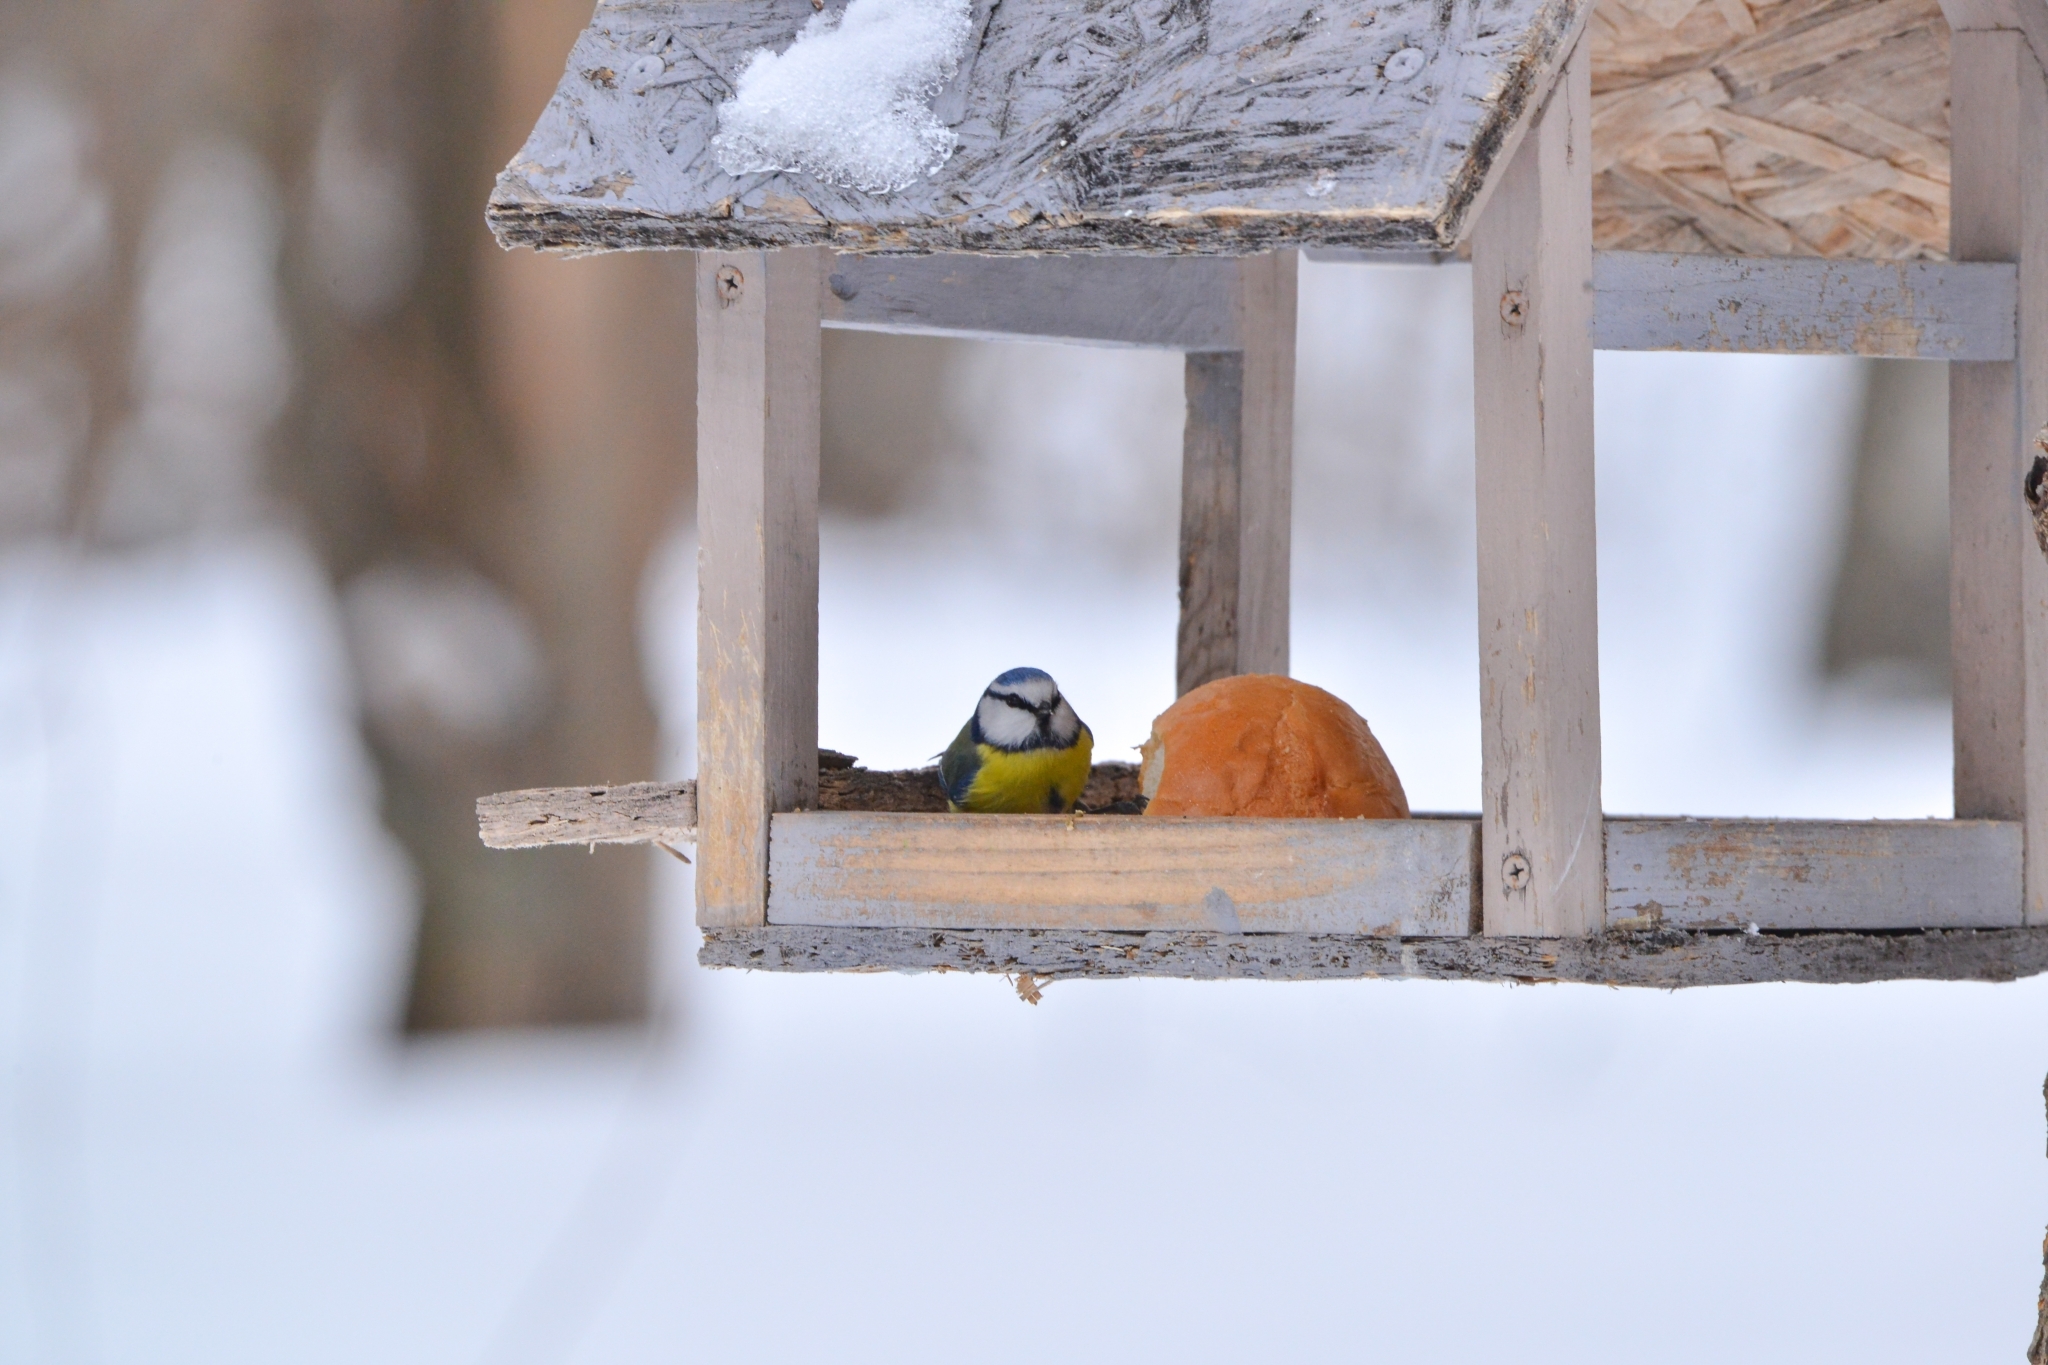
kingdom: Animalia
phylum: Chordata
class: Aves
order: Passeriformes
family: Paridae
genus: Cyanistes
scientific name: Cyanistes caeruleus
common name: Eurasian blue tit
